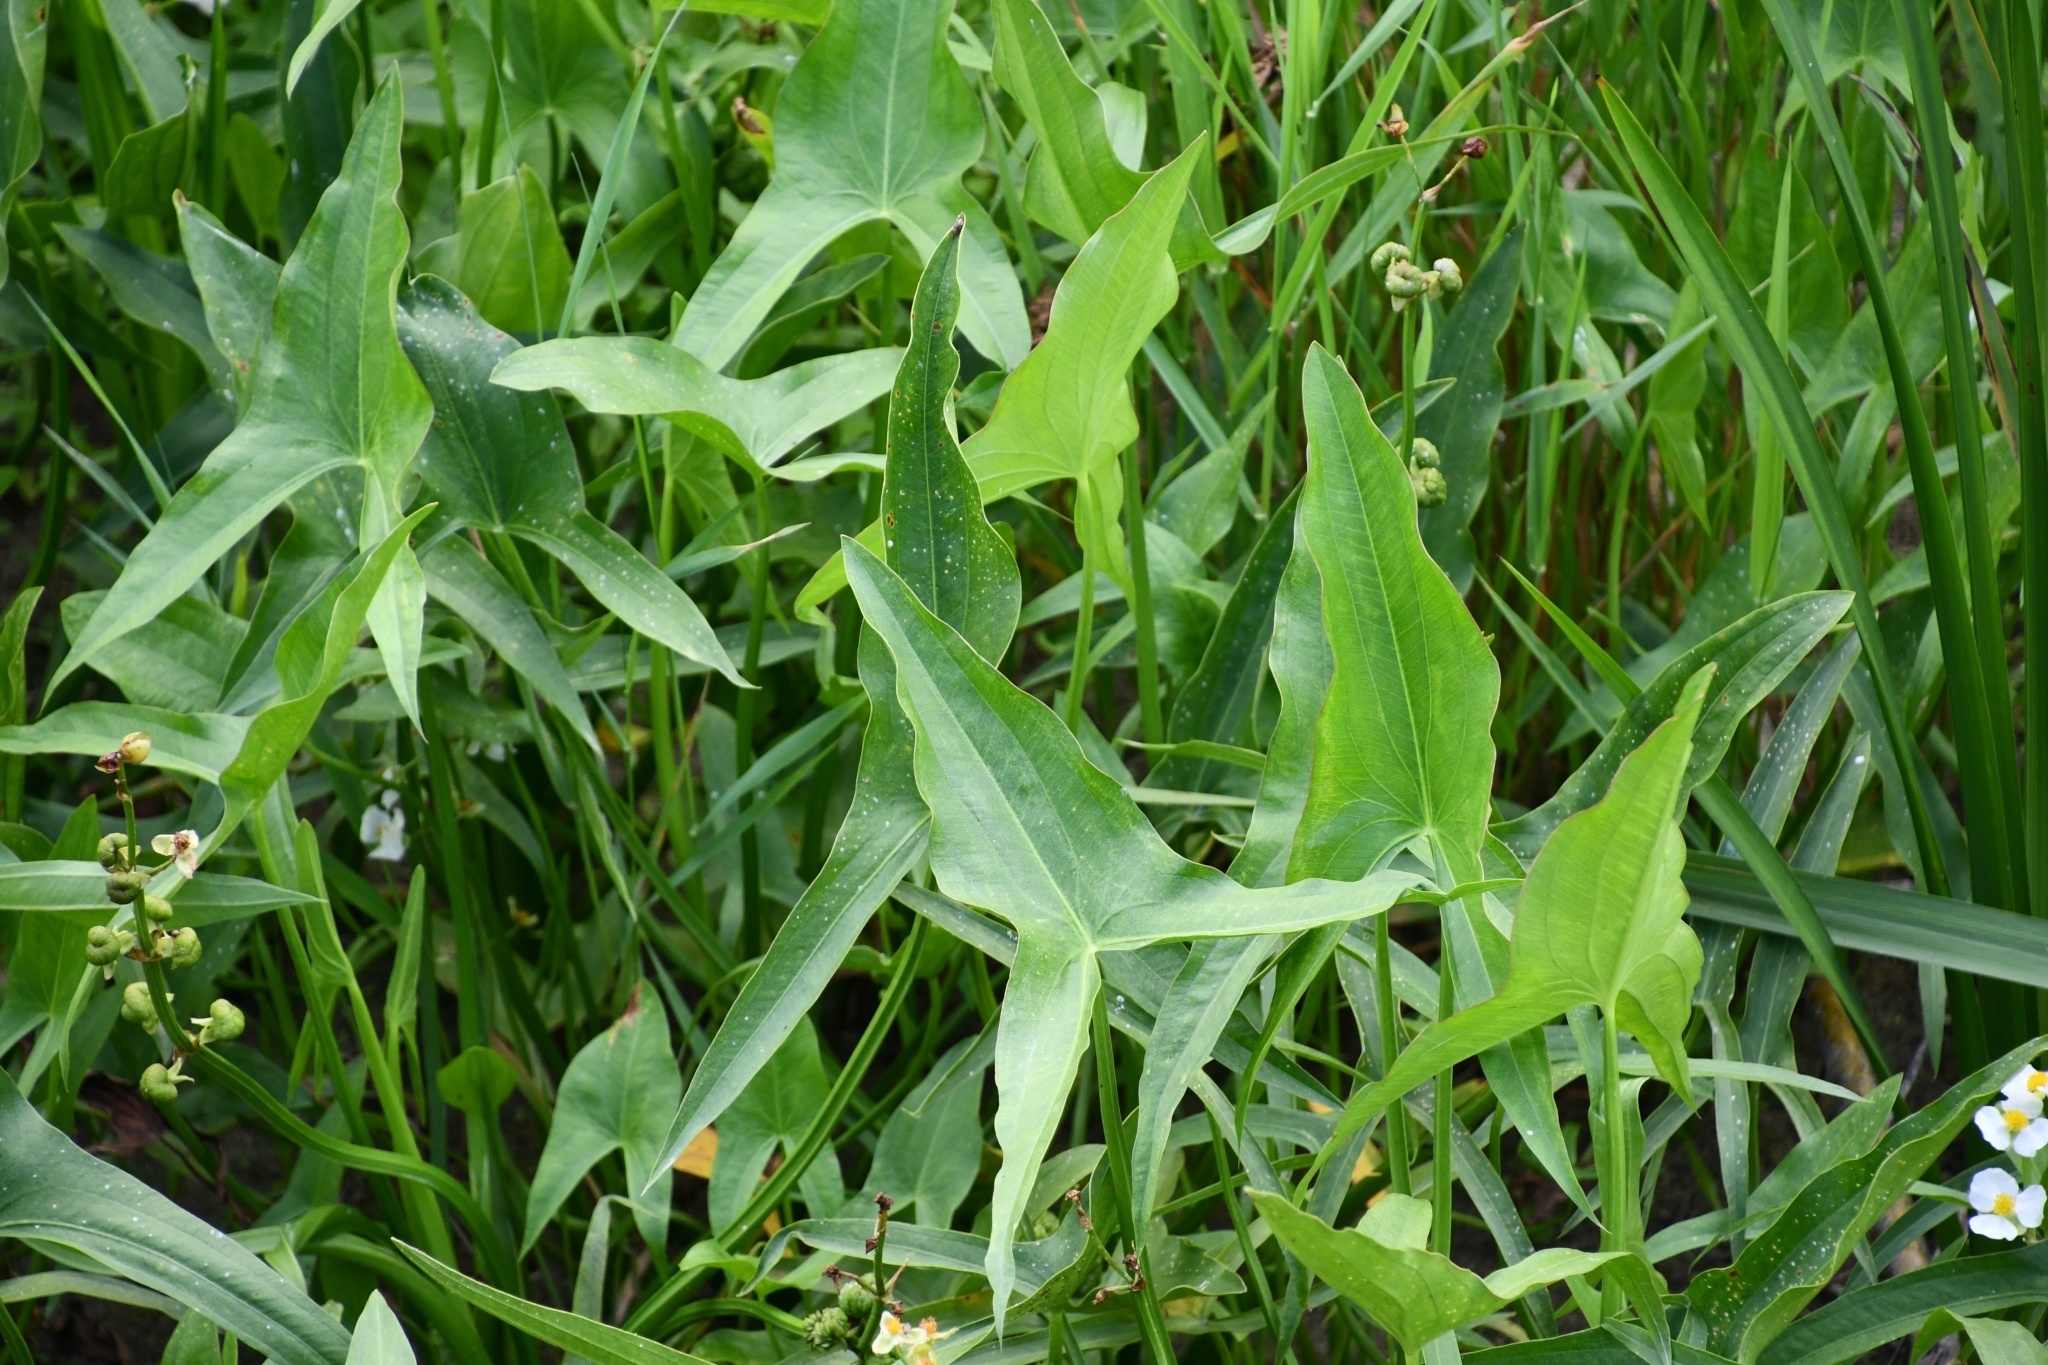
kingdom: Plantae
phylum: Tracheophyta
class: Liliopsida
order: Alismatales
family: Alismataceae
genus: Sagittaria
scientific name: Sagittaria latifolia
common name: Duck-potato
